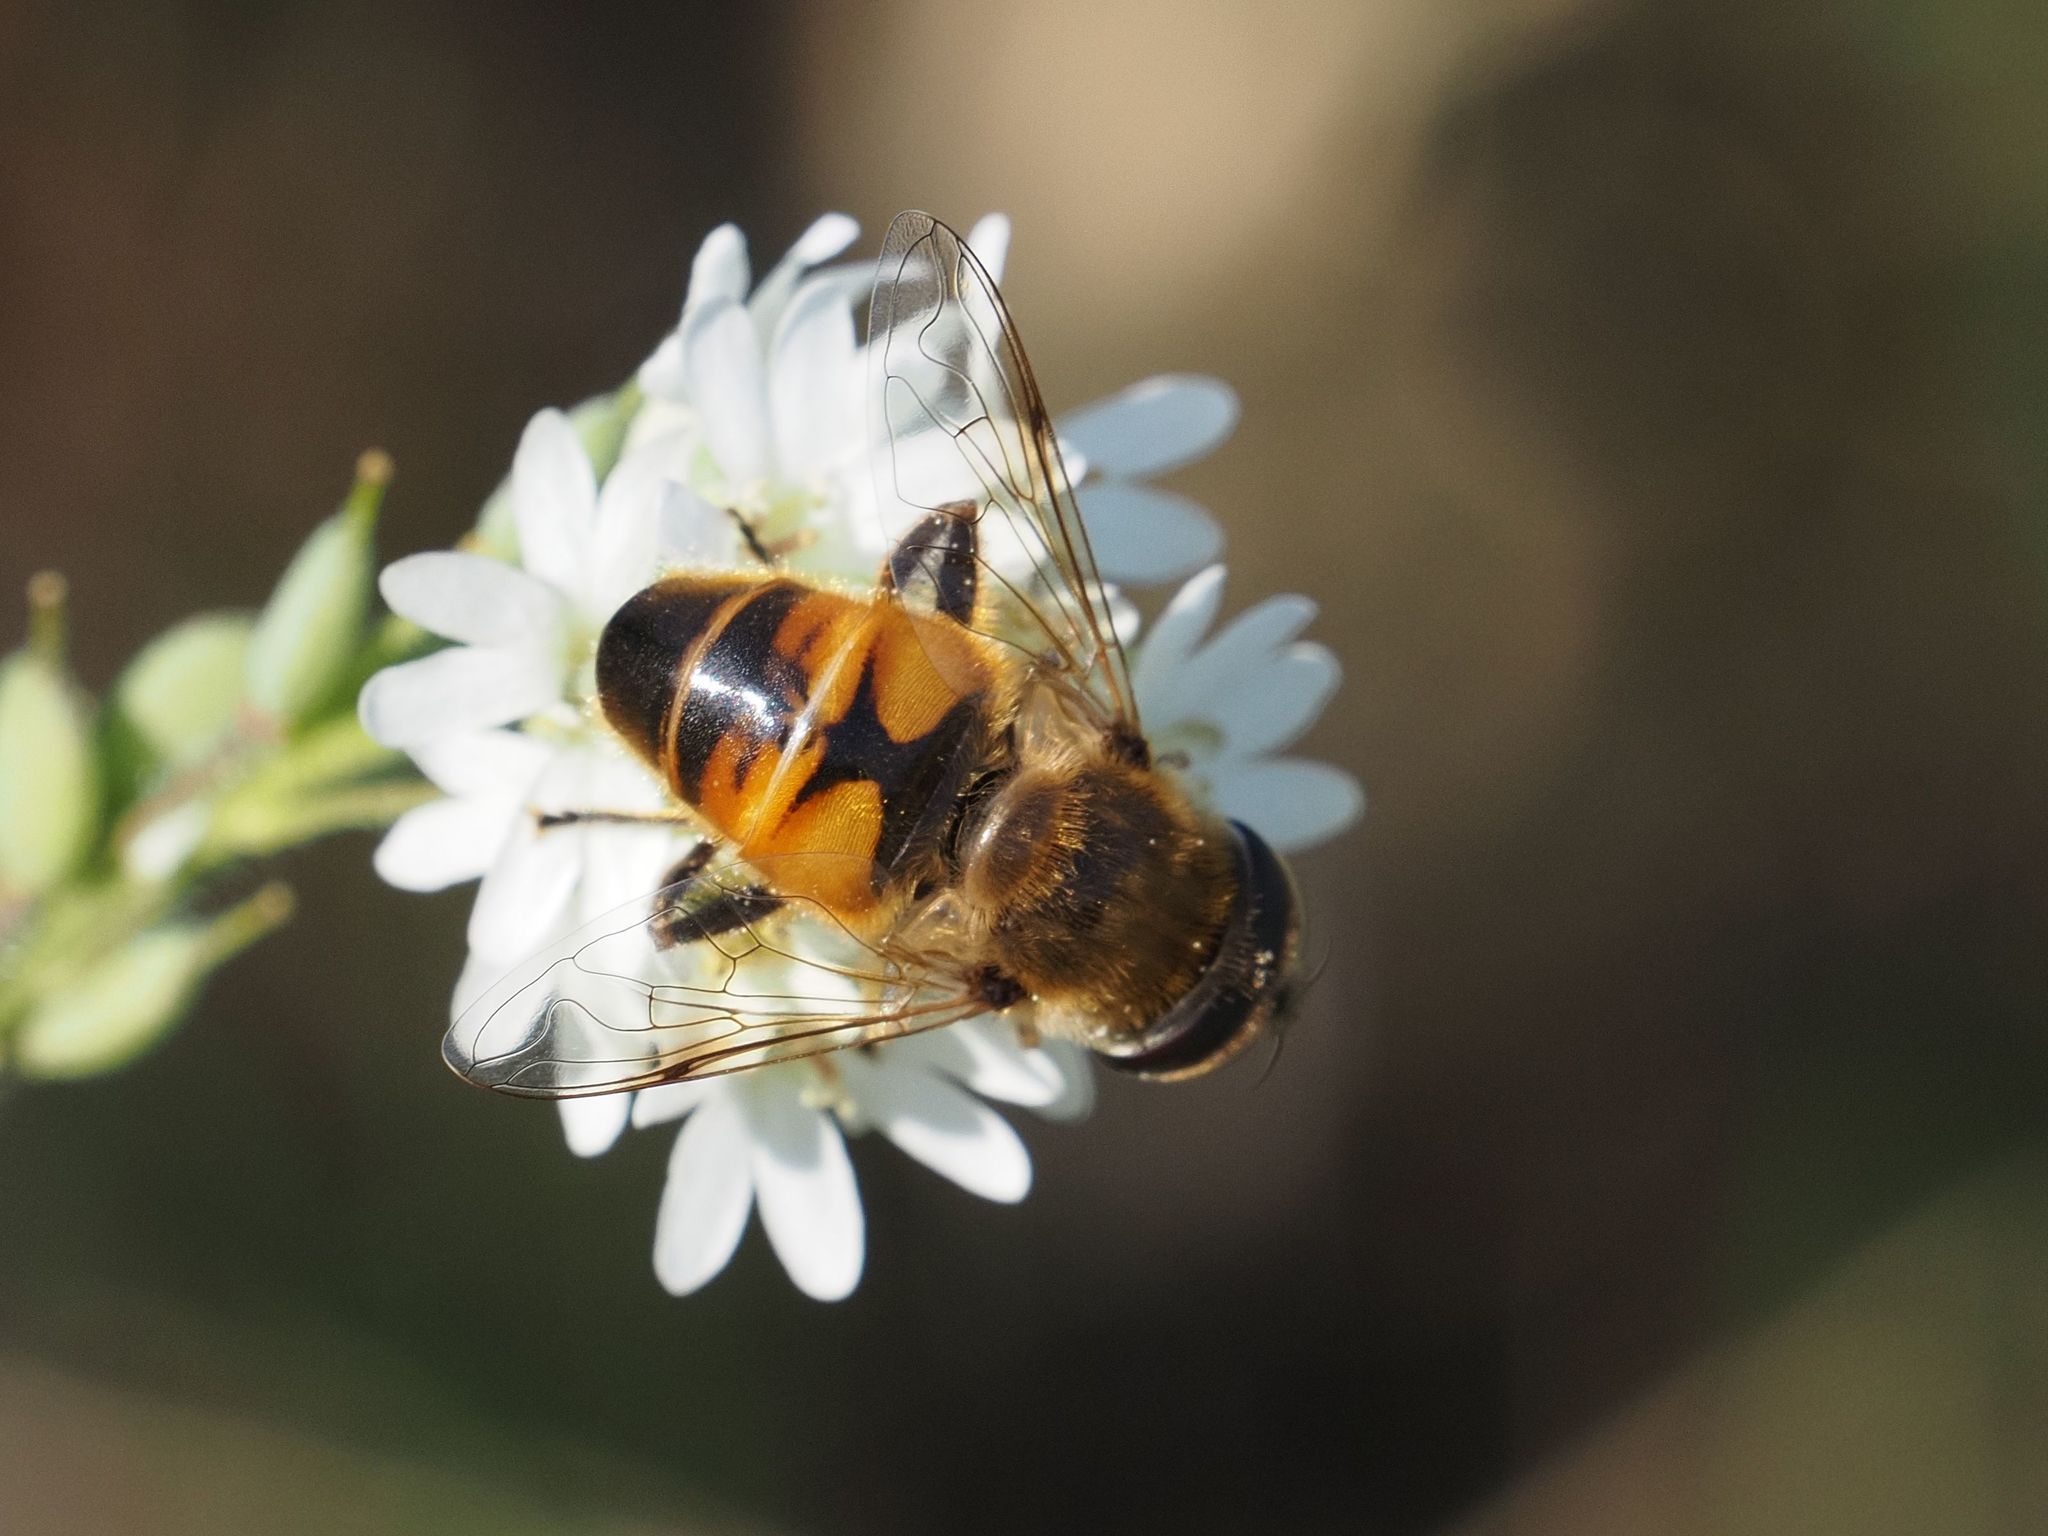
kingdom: Animalia
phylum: Arthropoda
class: Insecta
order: Diptera
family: Syrphidae
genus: Eristalis
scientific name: Eristalis tenax
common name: Drone fly
